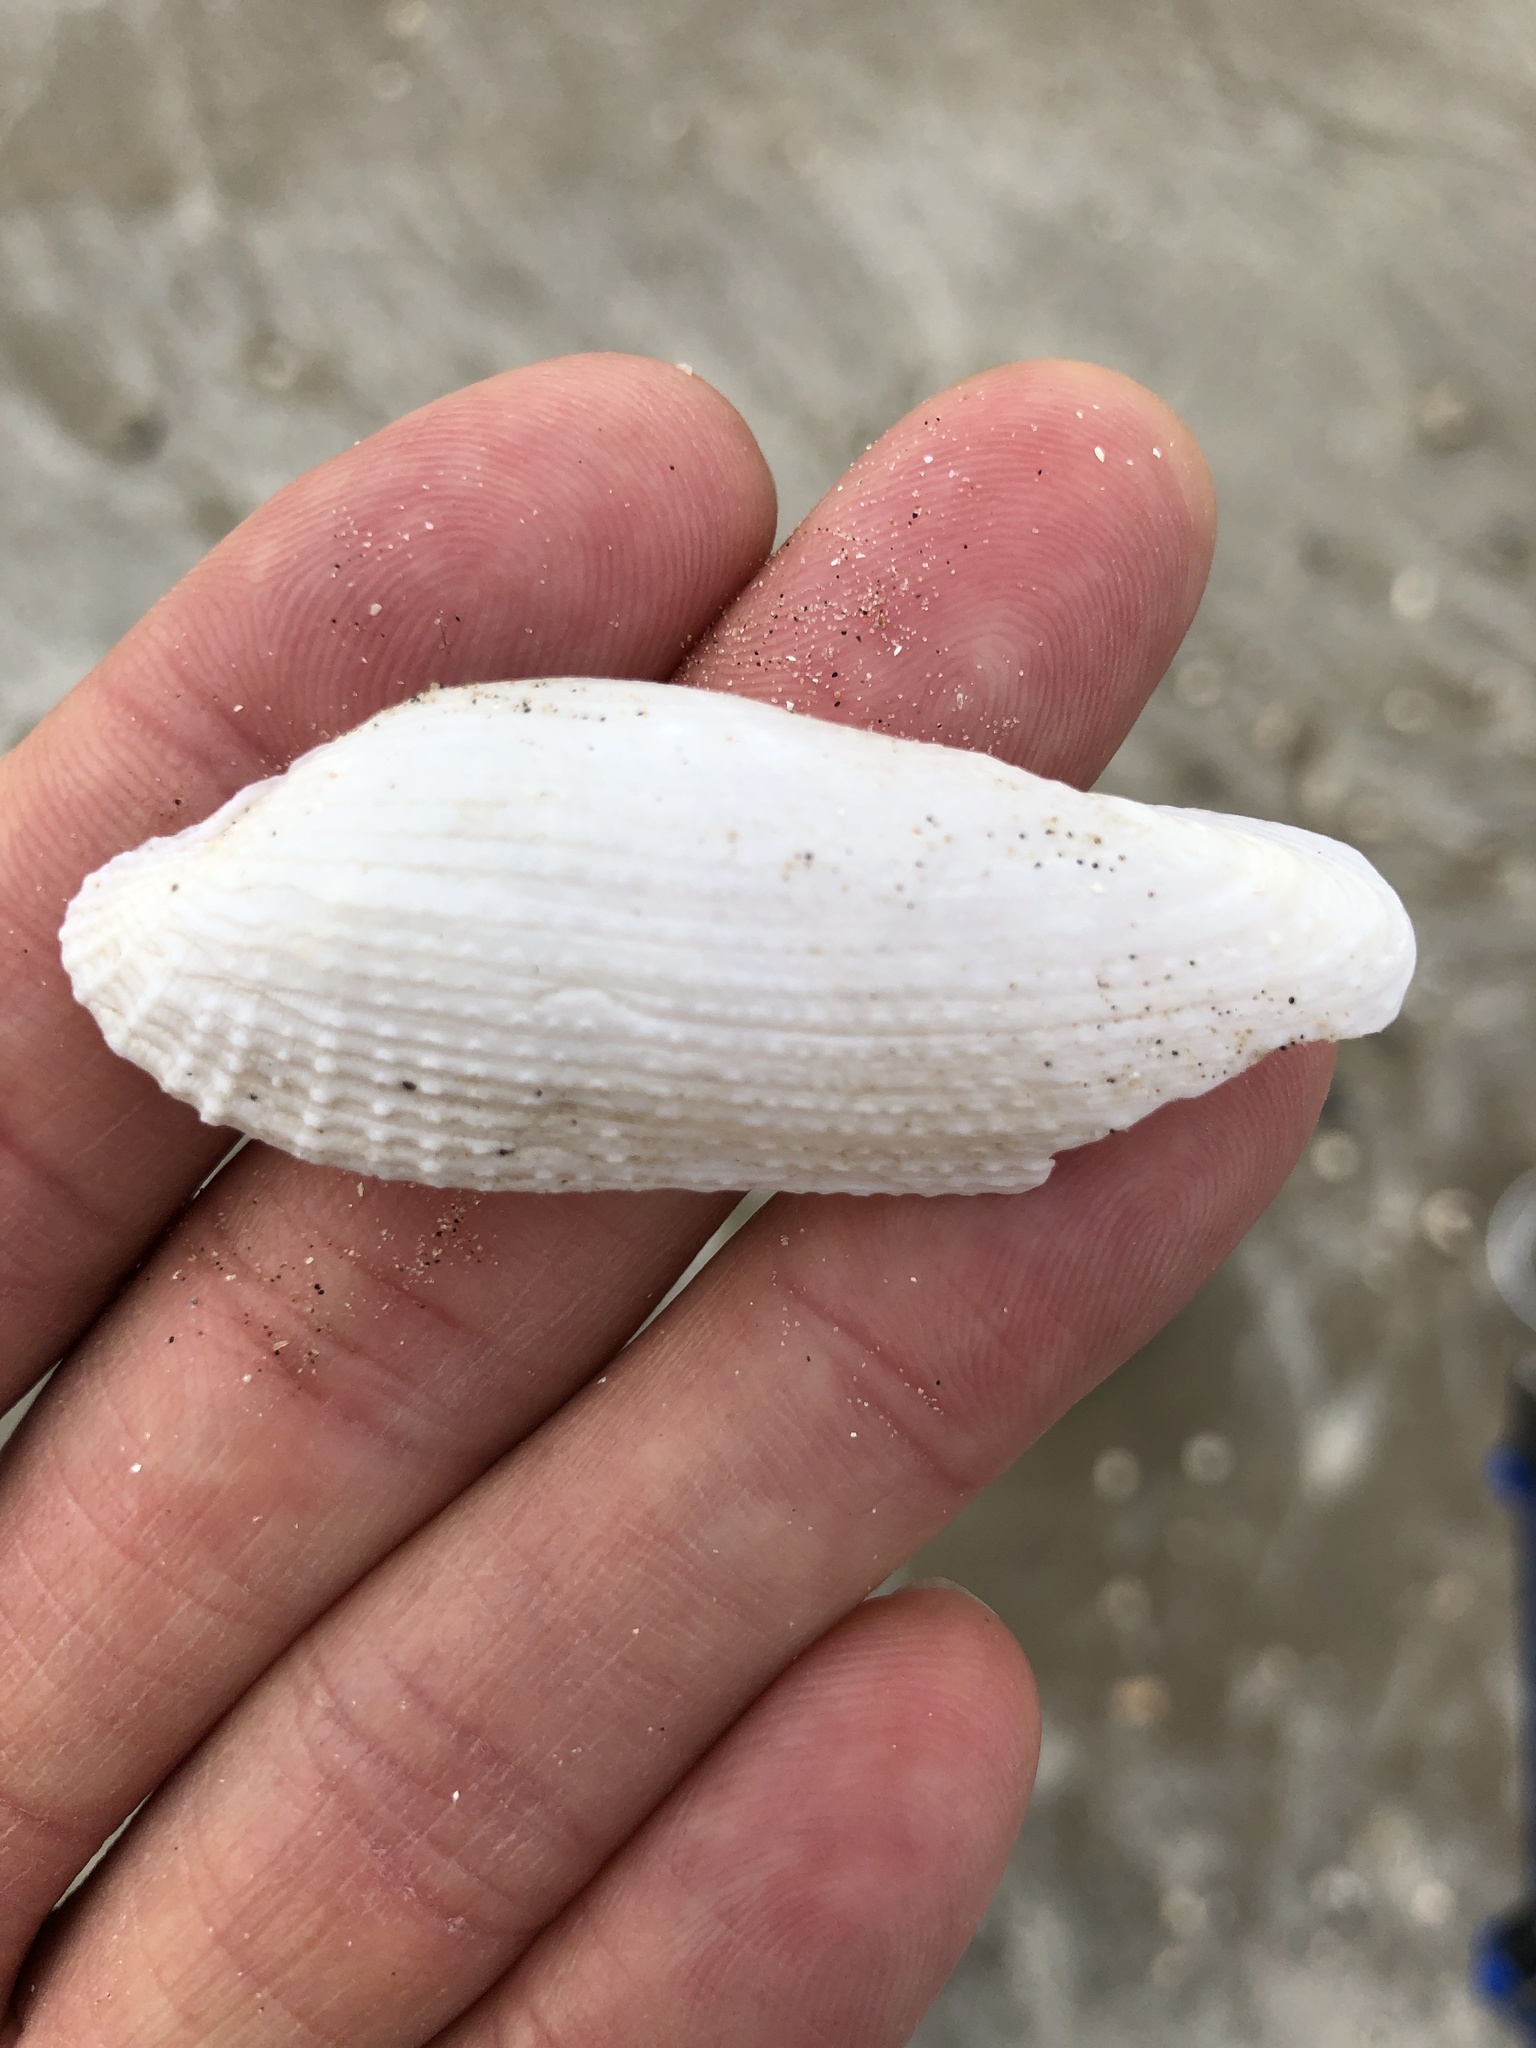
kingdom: Animalia
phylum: Mollusca
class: Bivalvia
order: Myida
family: Pholadidae
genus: Pholas
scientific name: Pholas campechiensis
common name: Campeche angel wing
